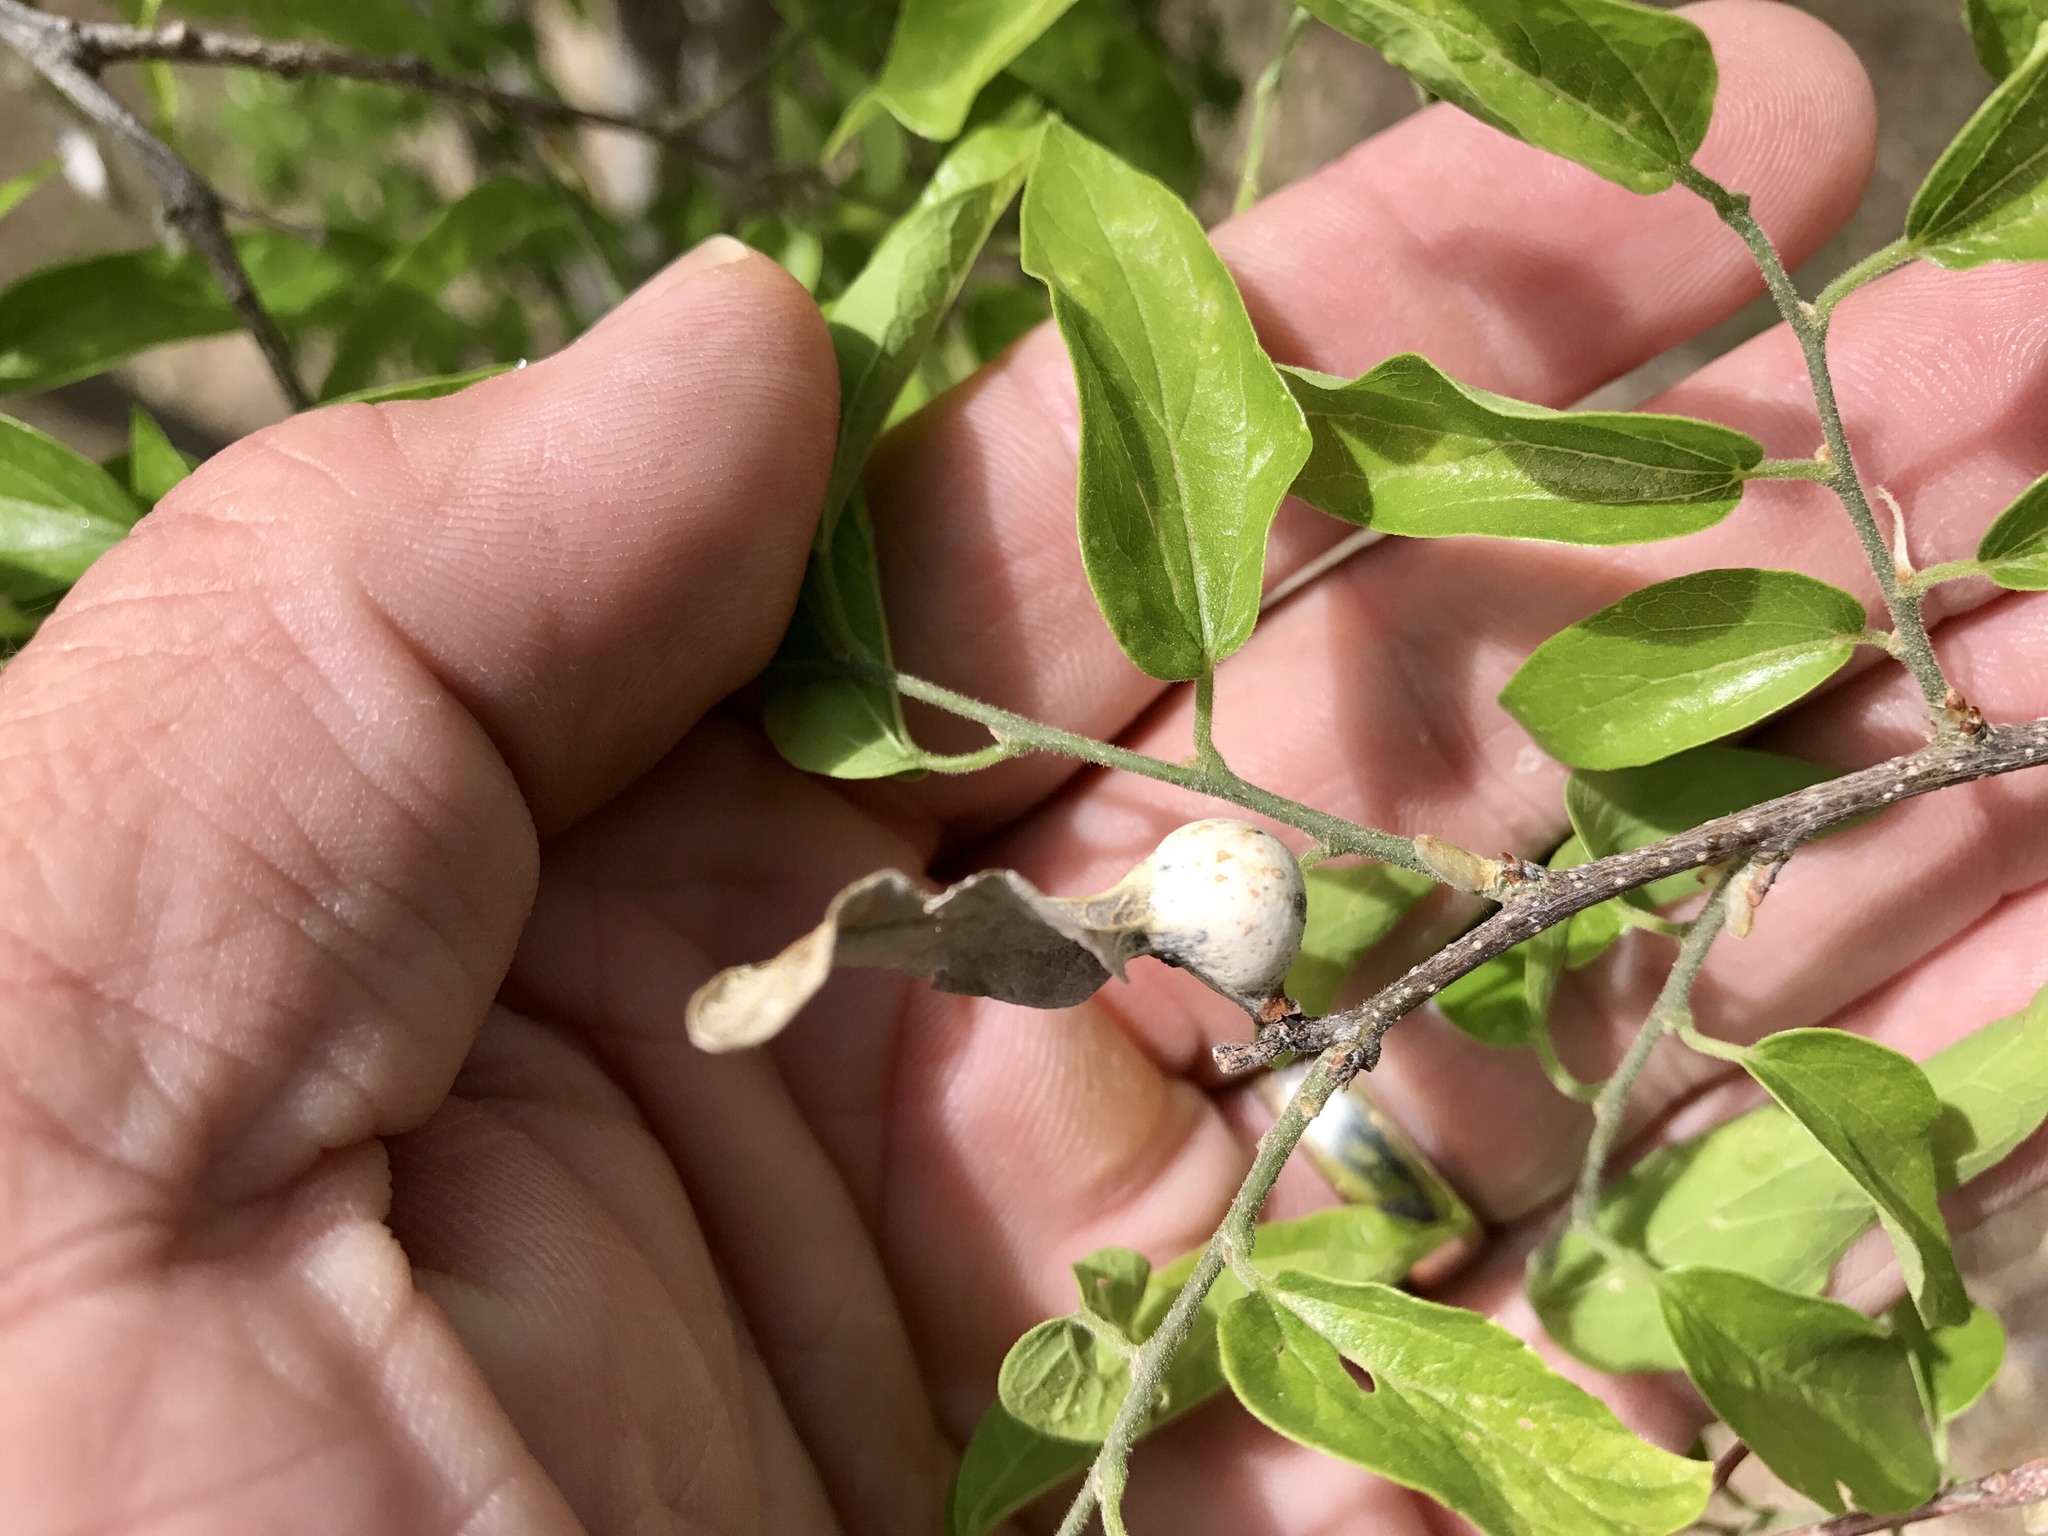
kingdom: Plantae
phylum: Tracheophyta
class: Magnoliopsida
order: Rosales
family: Cannabaceae
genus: Celtis
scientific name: Celtis reticulata
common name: Netleaf hackberry
